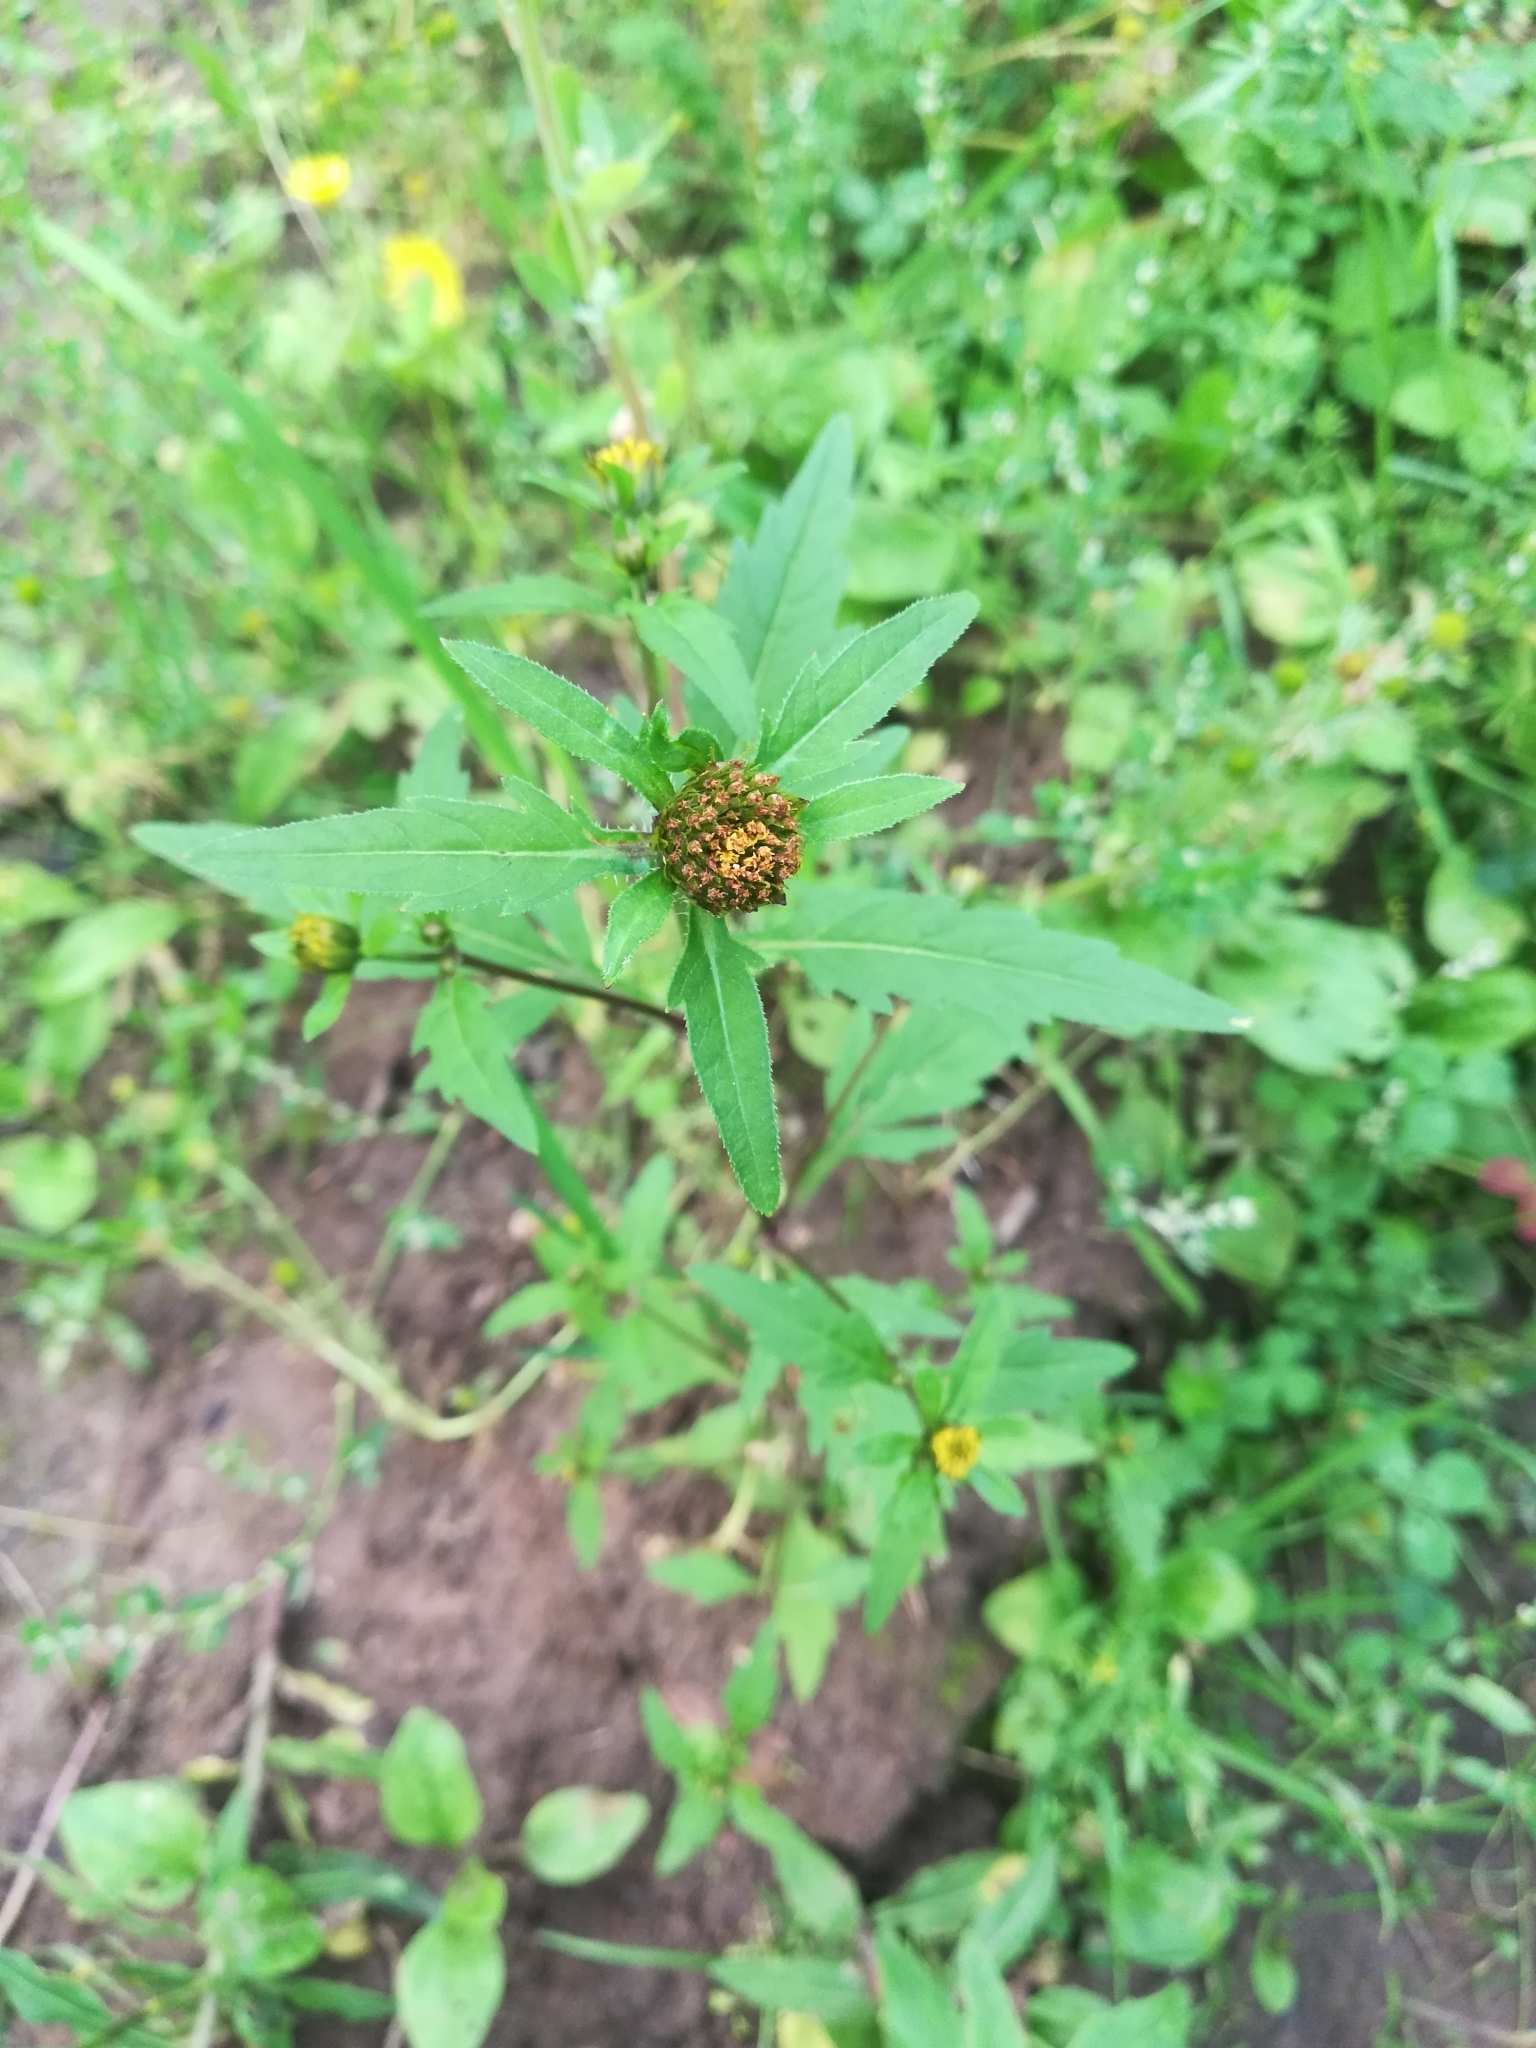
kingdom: Plantae
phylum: Tracheophyta
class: Magnoliopsida
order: Asterales
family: Asteraceae
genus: Bidens
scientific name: Bidens tripartita
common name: Trifid bur-marigold
